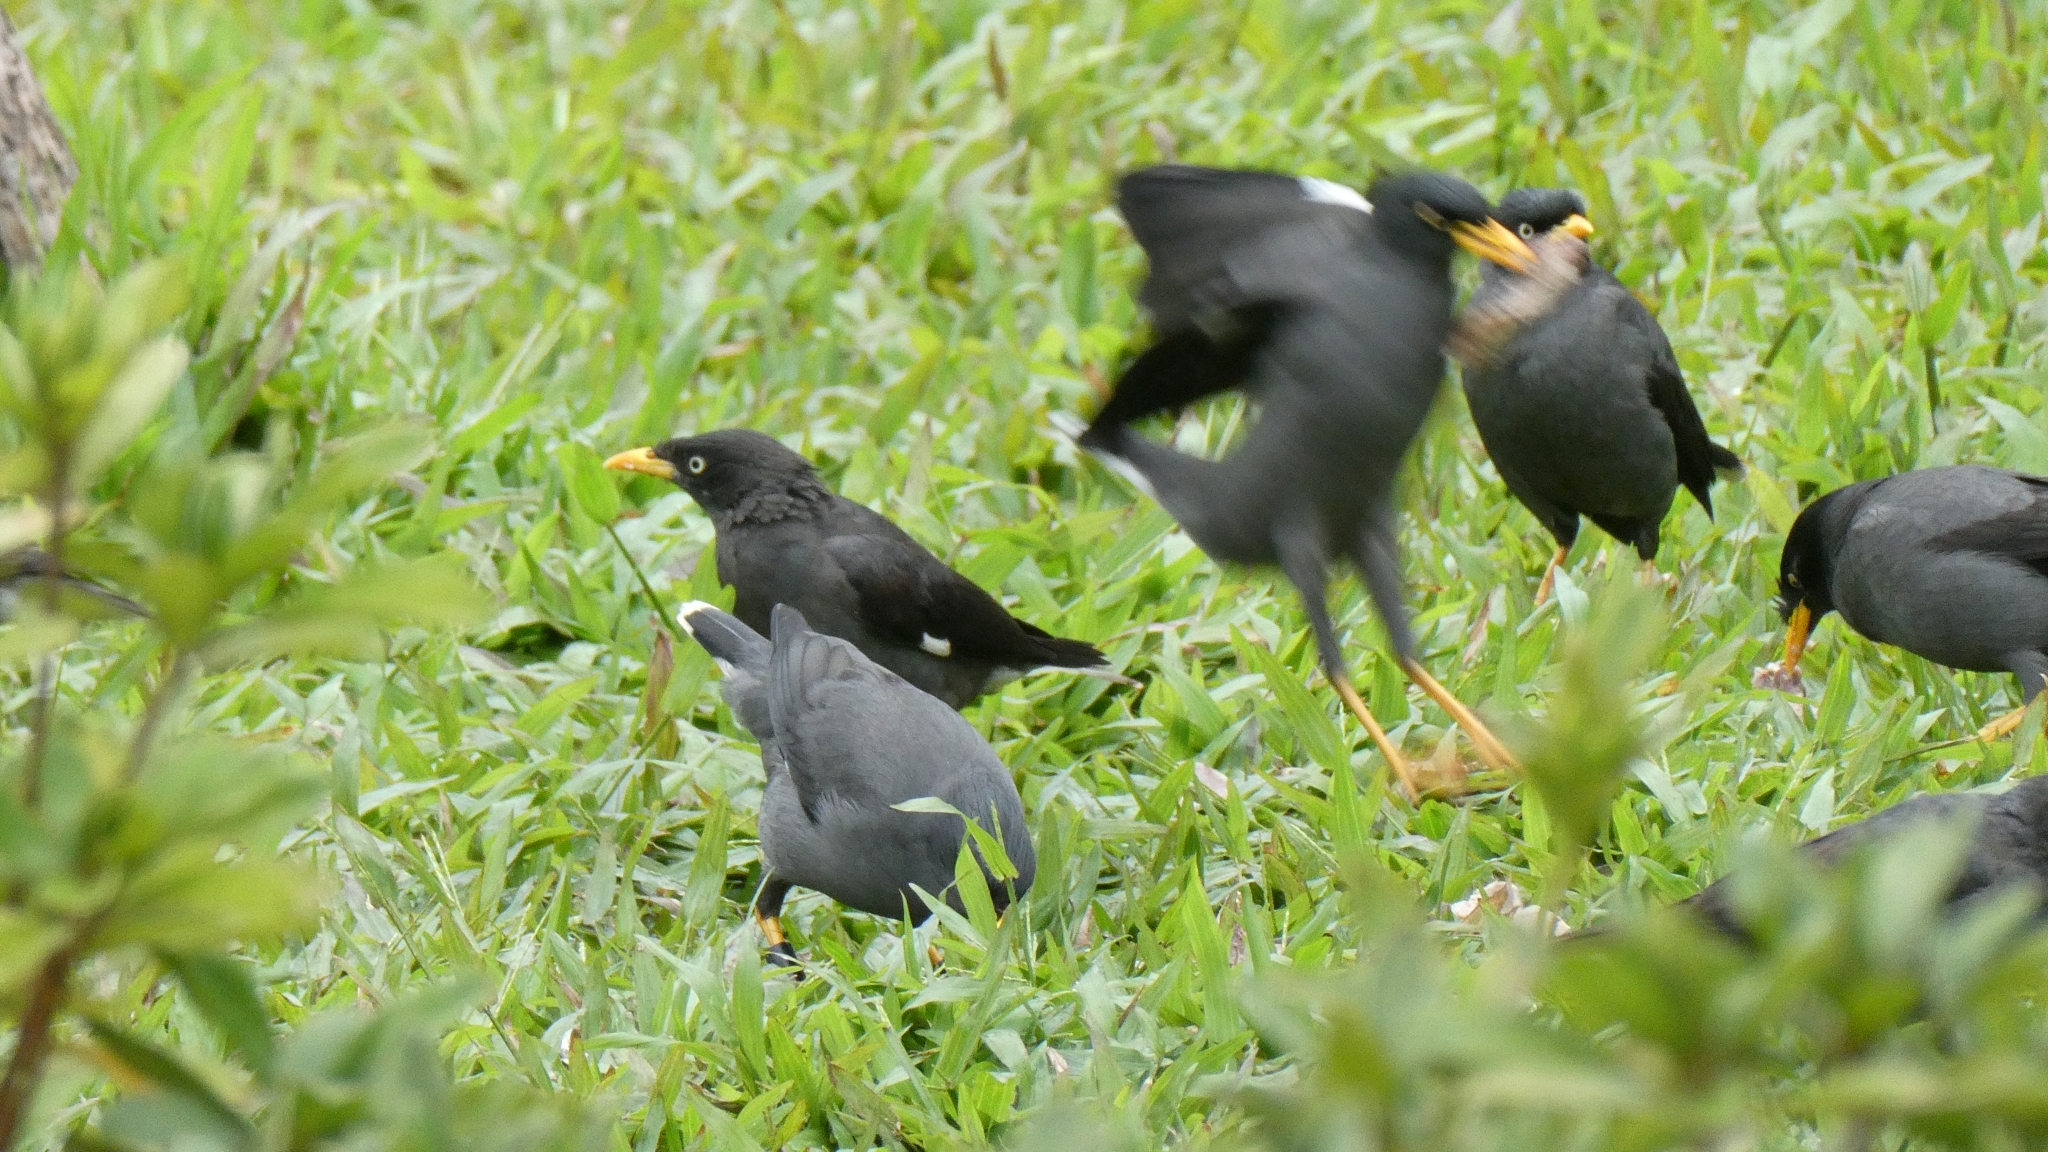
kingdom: Animalia
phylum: Chordata
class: Aves
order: Passeriformes
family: Sturnidae
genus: Acridotheres
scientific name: Acridotheres javanicus
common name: Javan myna
